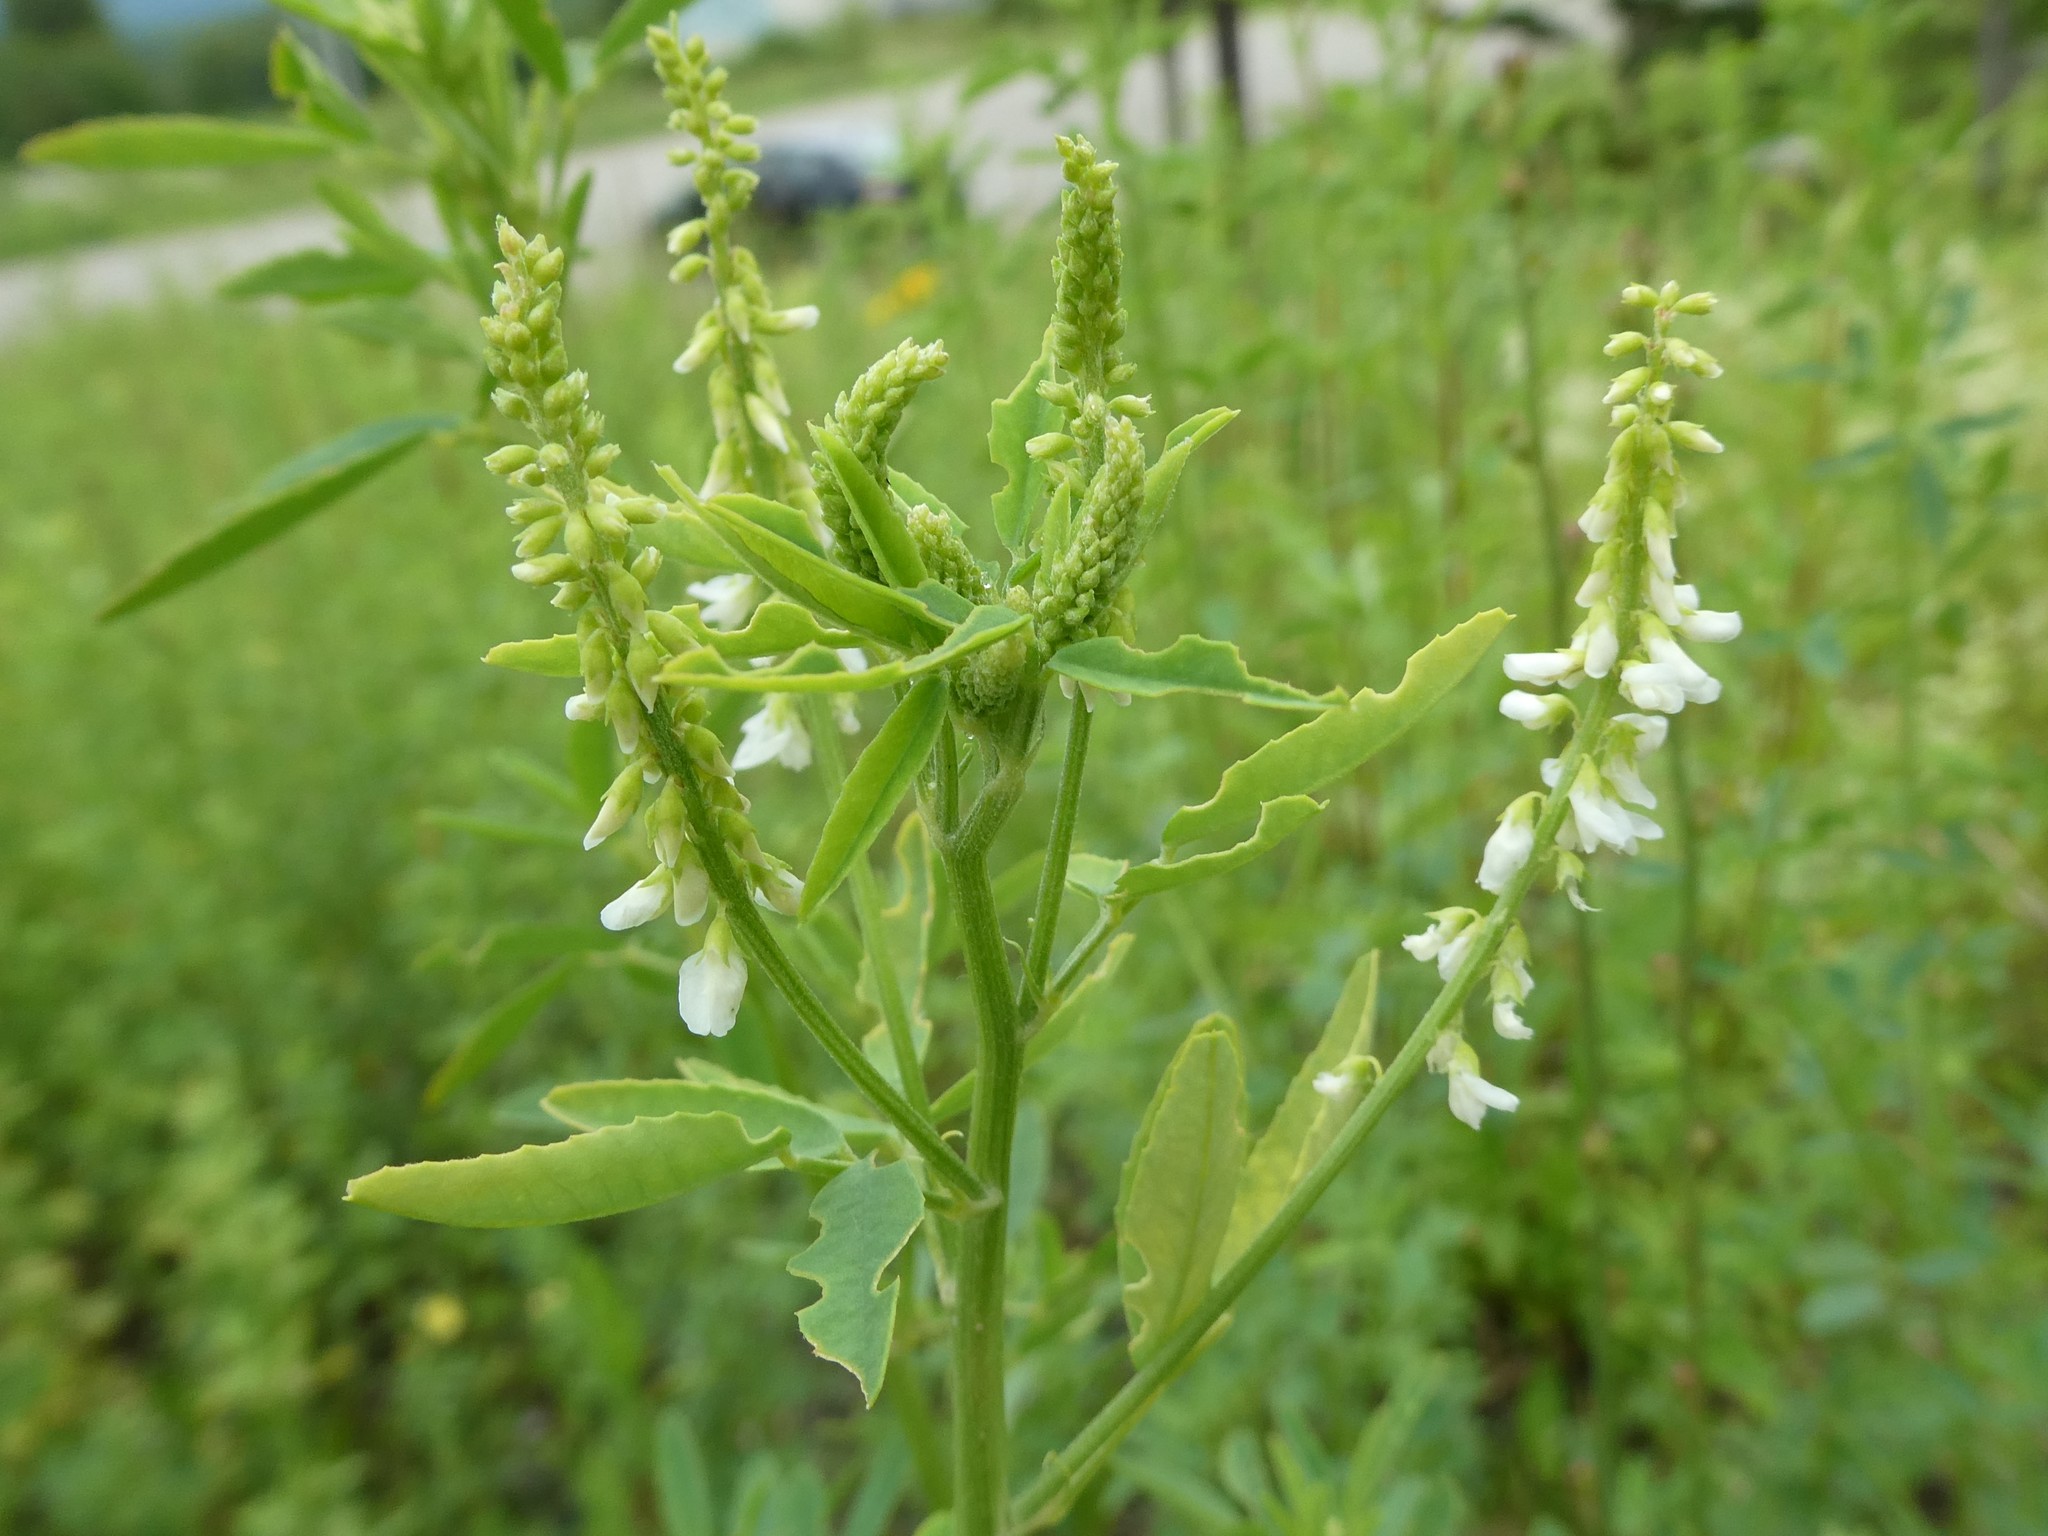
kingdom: Plantae
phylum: Tracheophyta
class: Magnoliopsida
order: Fabales
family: Fabaceae
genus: Melilotus
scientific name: Melilotus albus
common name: White melilot
